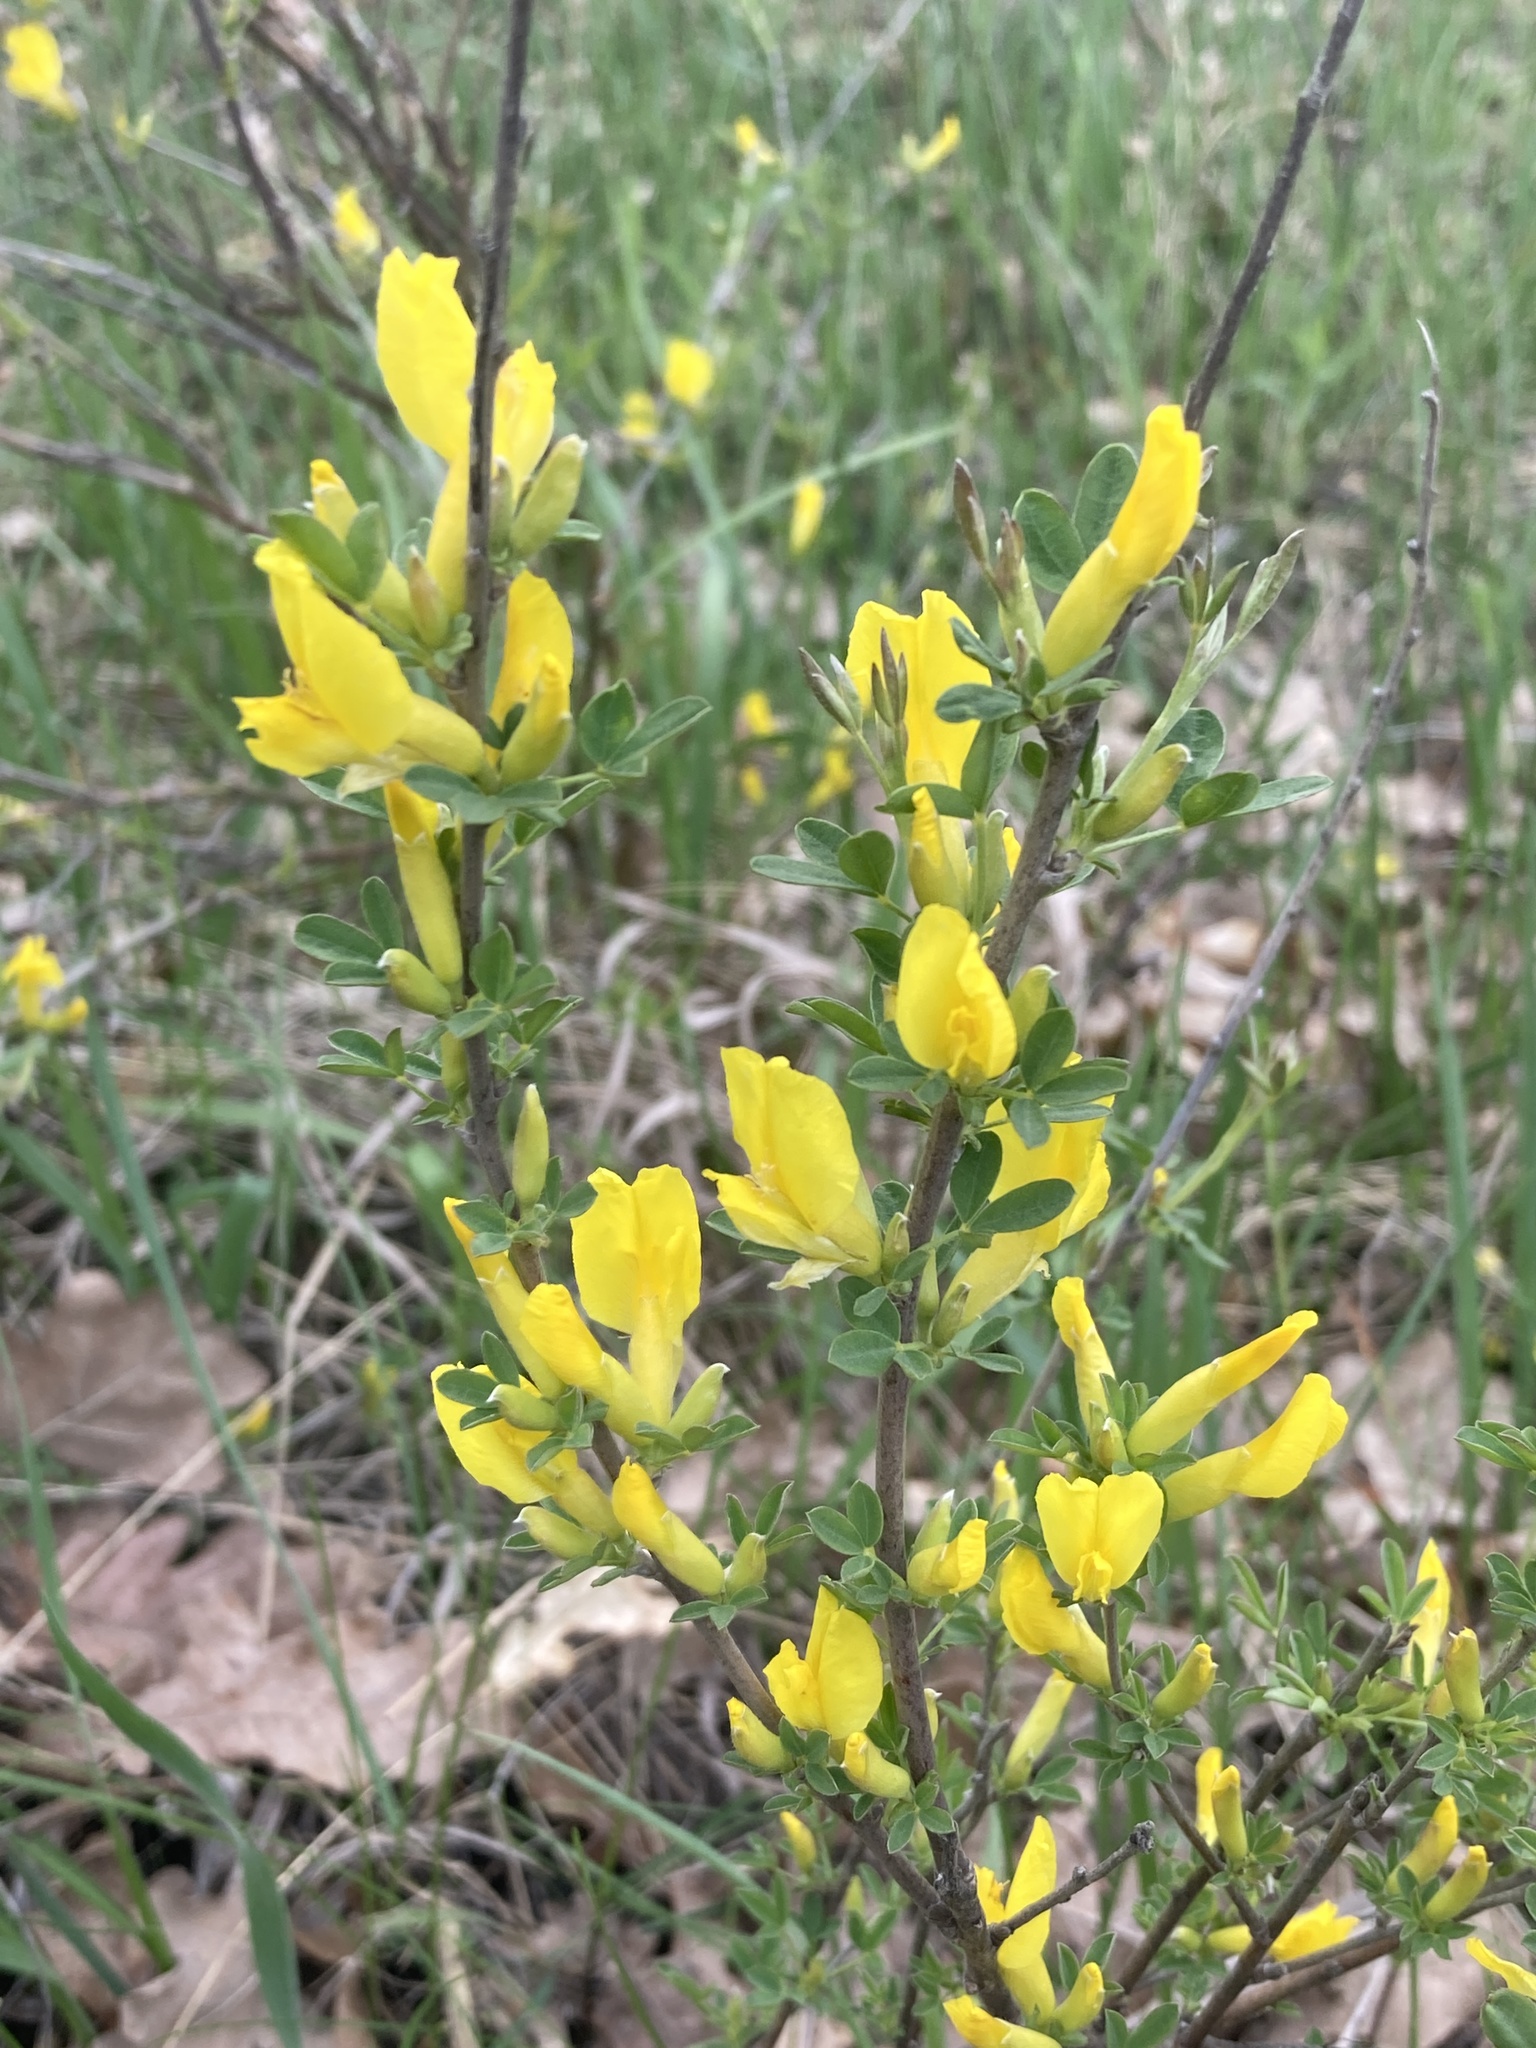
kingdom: Plantae
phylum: Tracheophyta
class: Magnoliopsida
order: Fabales
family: Fabaceae
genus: Chamaecytisus
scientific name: Chamaecytisus ruthenicus
